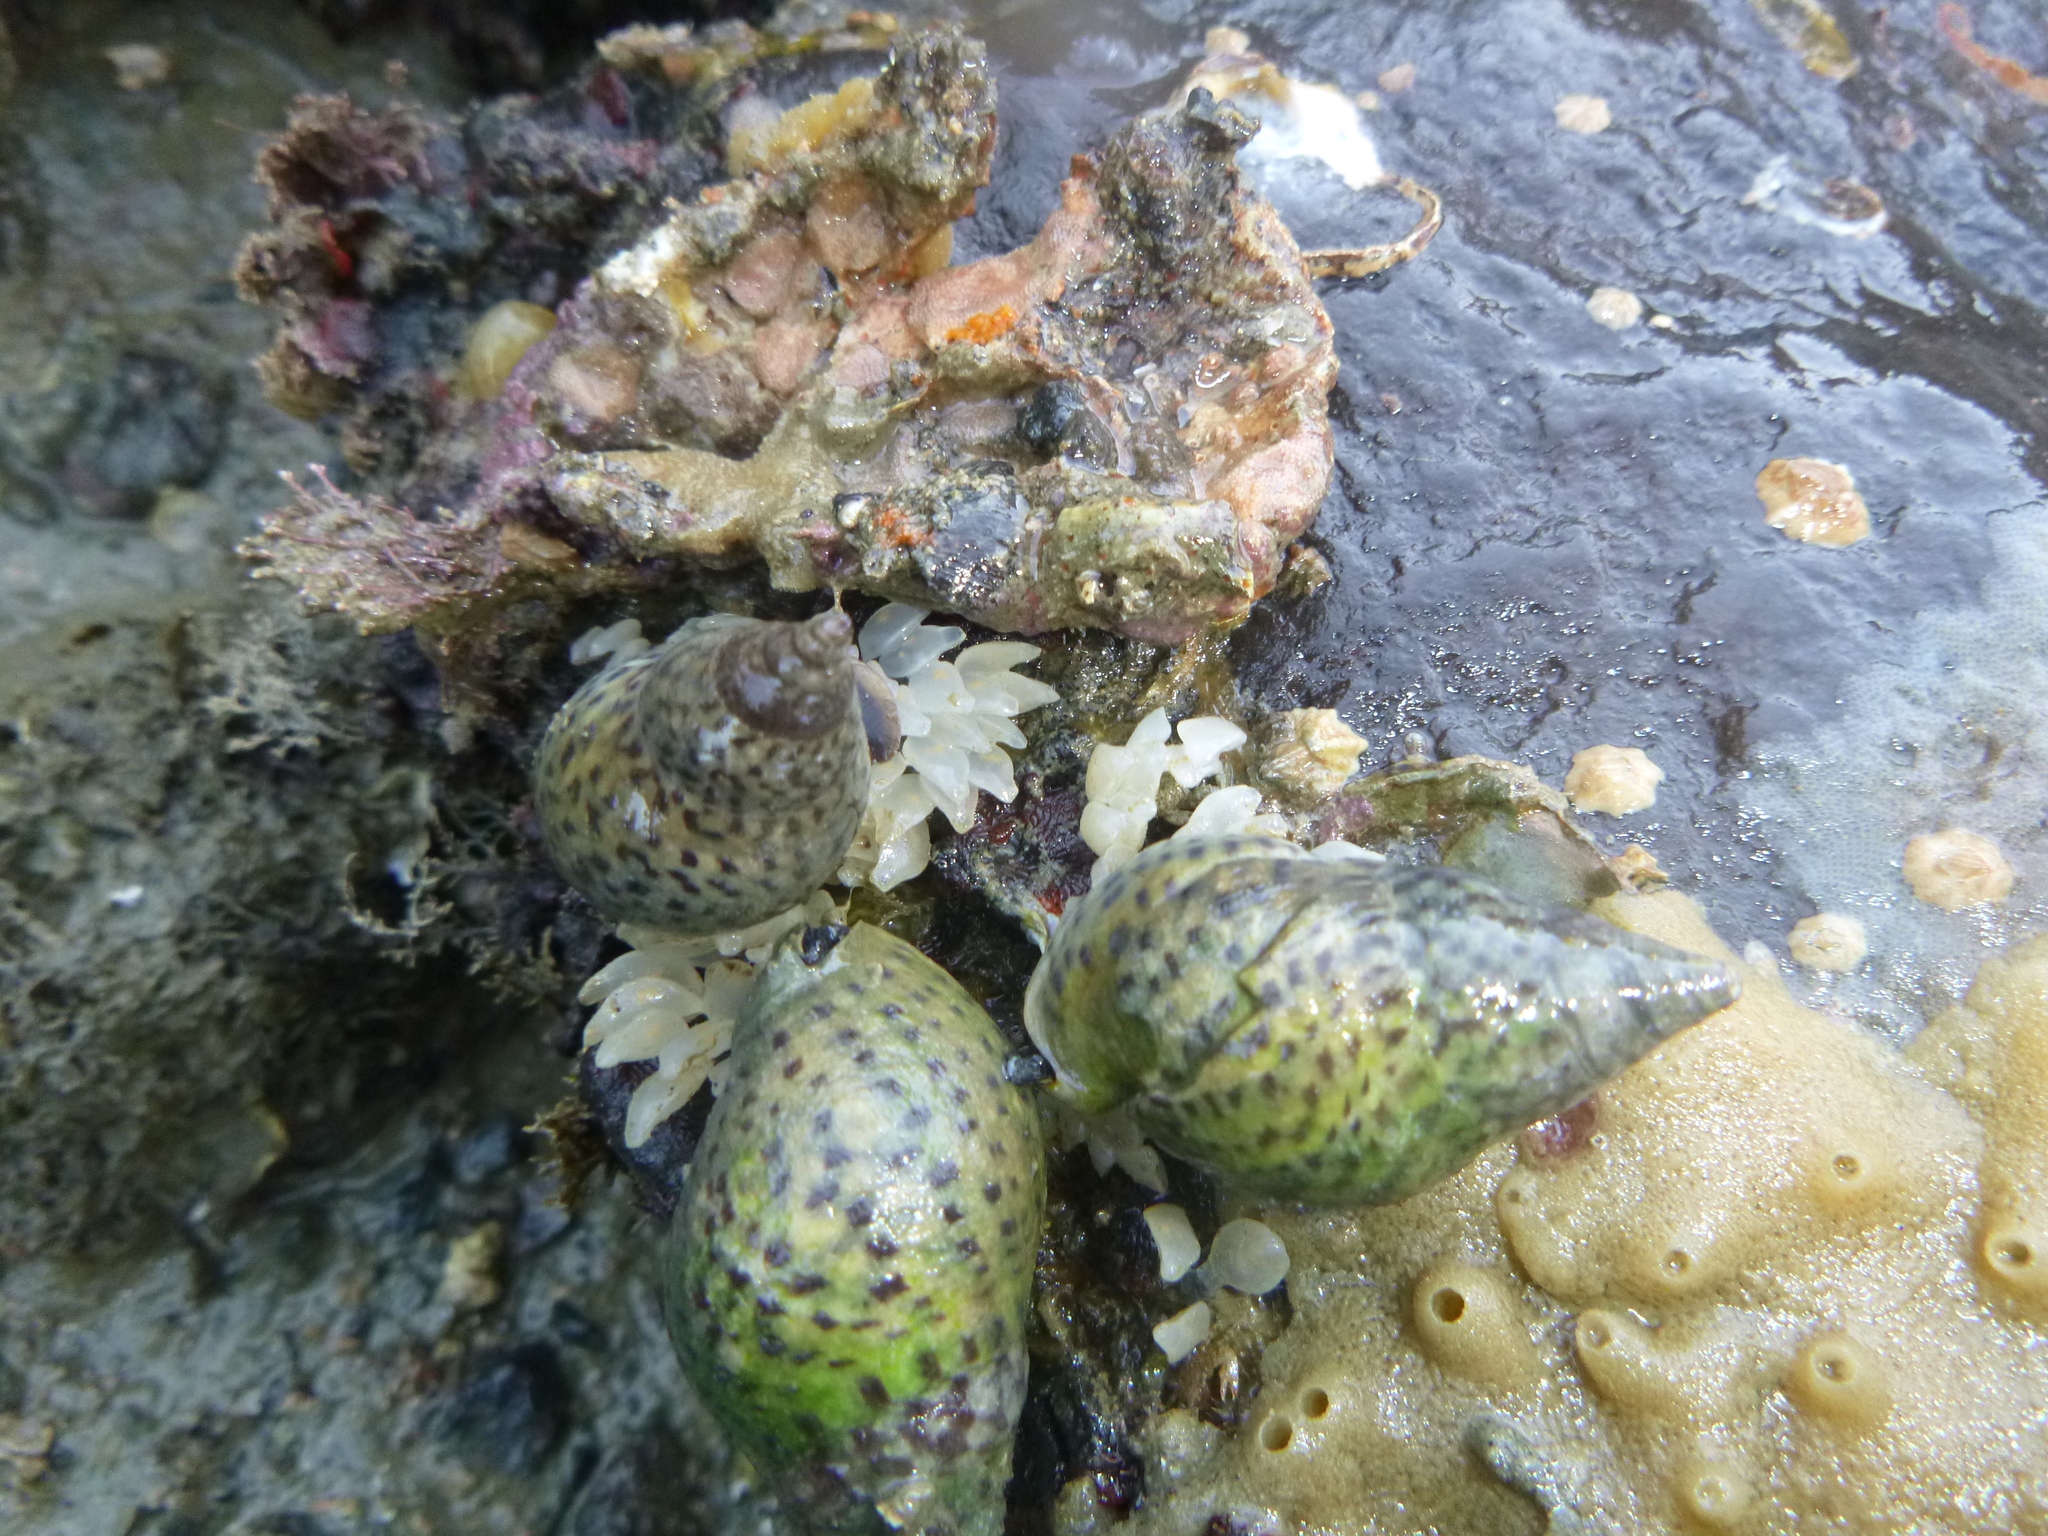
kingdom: Animalia
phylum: Mollusca
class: Gastropoda
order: Neogastropoda
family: Cominellidae
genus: Cominella
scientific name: Cominella maculosa
